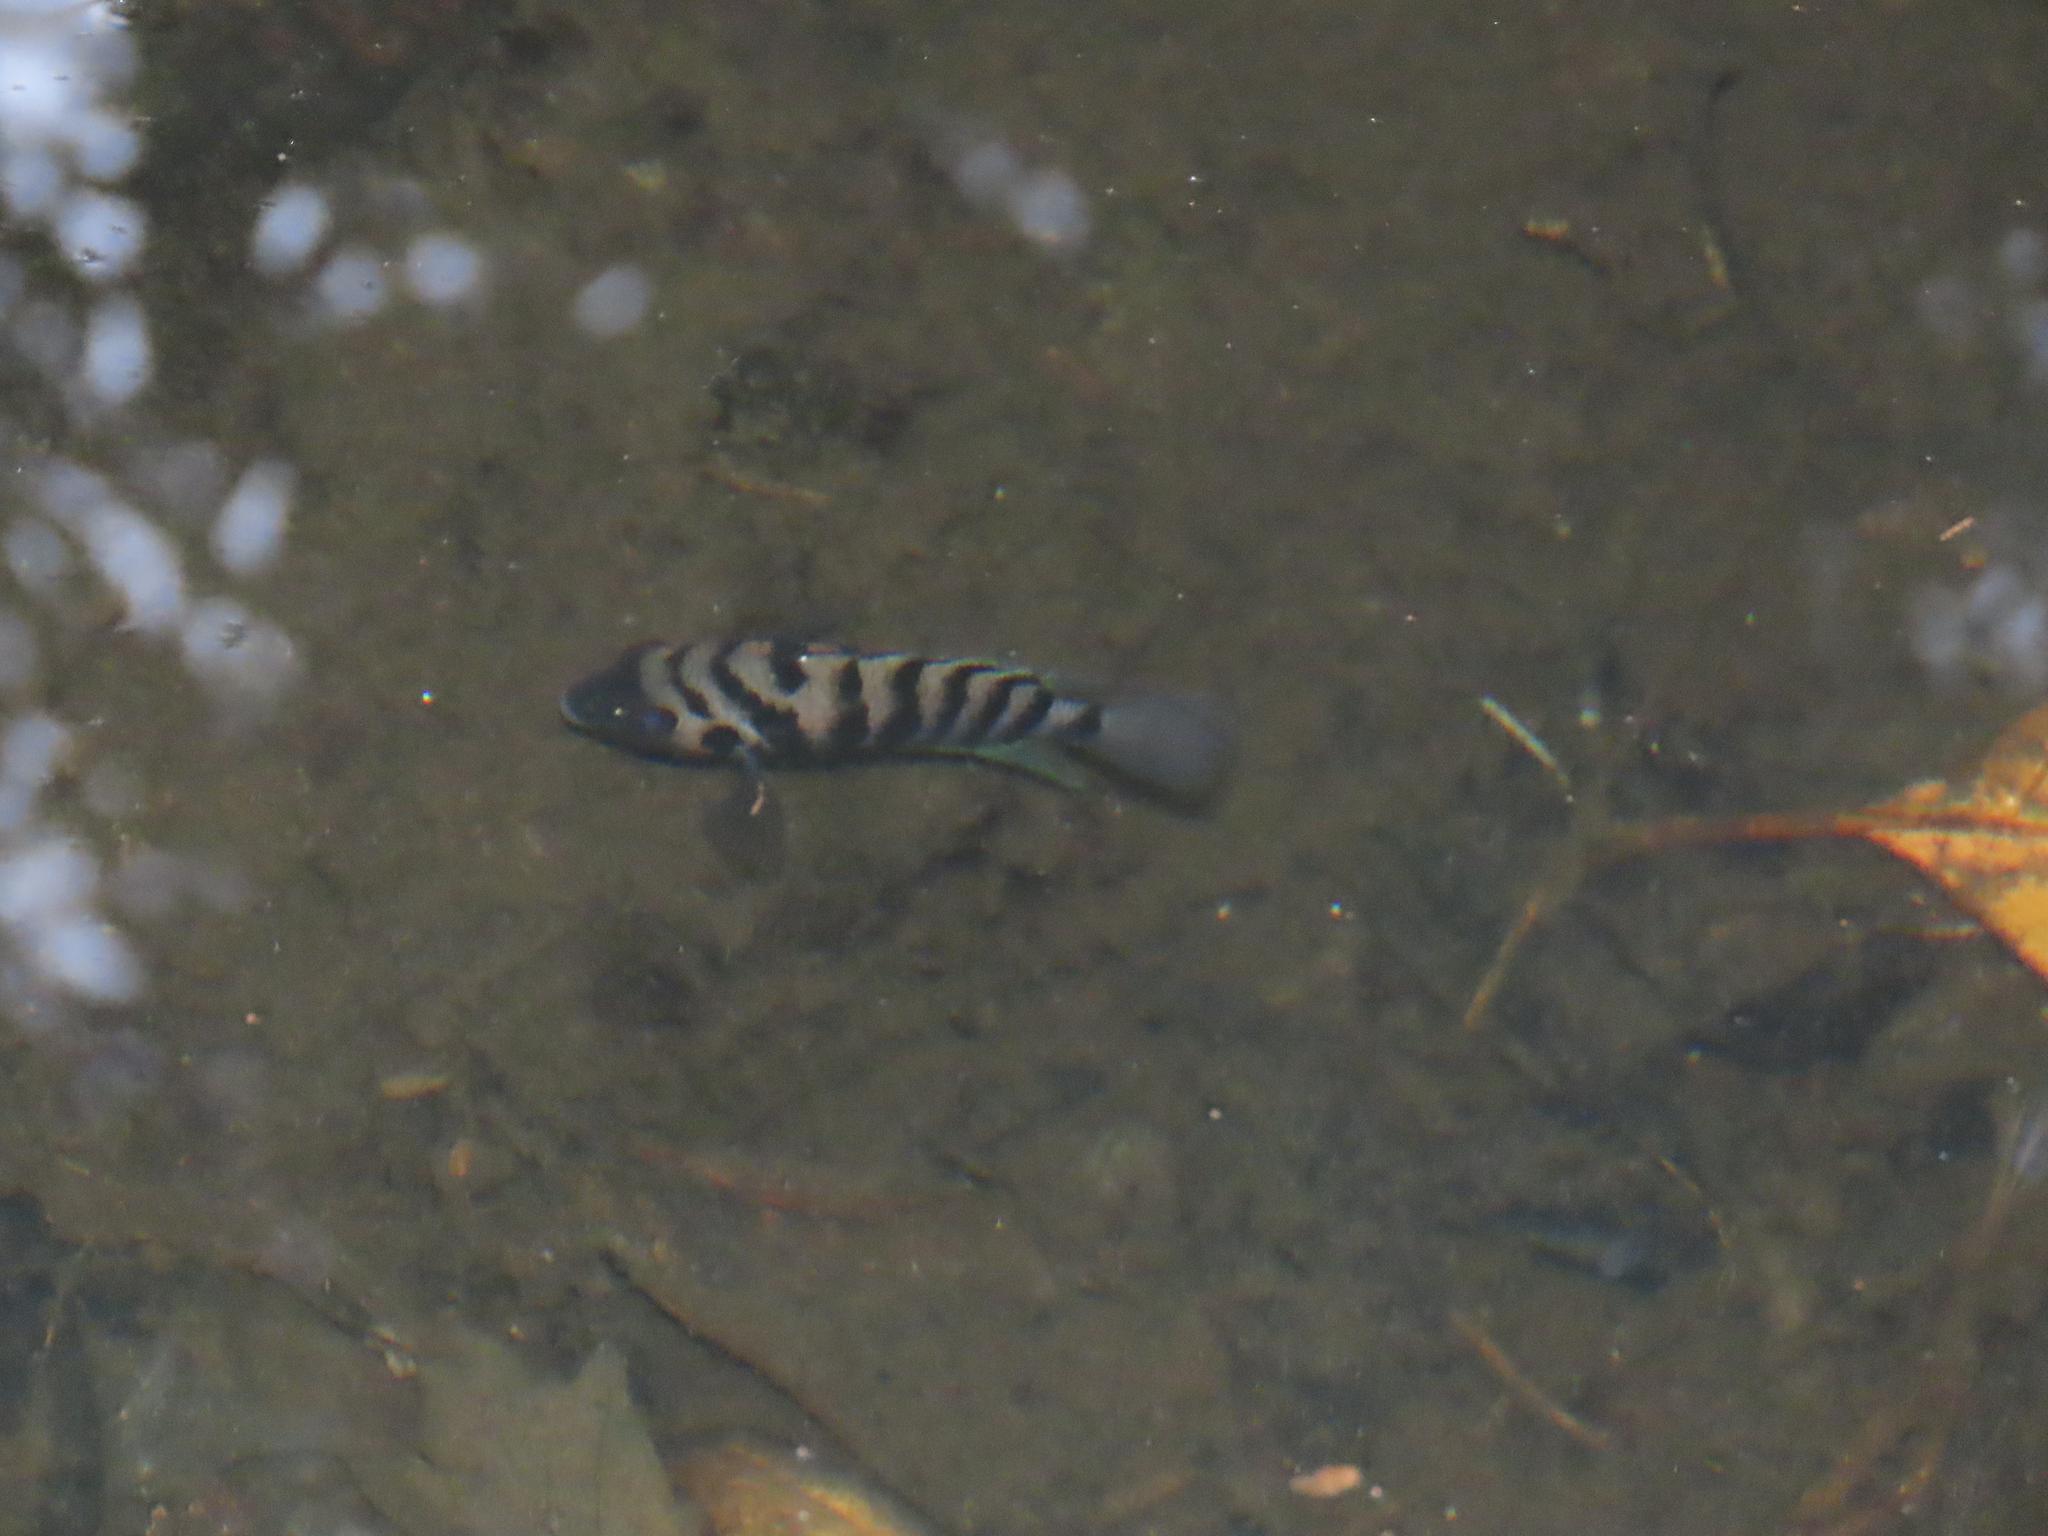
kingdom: Animalia
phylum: Chordata
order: Perciformes
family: Cichlidae
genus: Amatitlania
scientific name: Amatitlania nigrofasciata
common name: Convict cichlid
